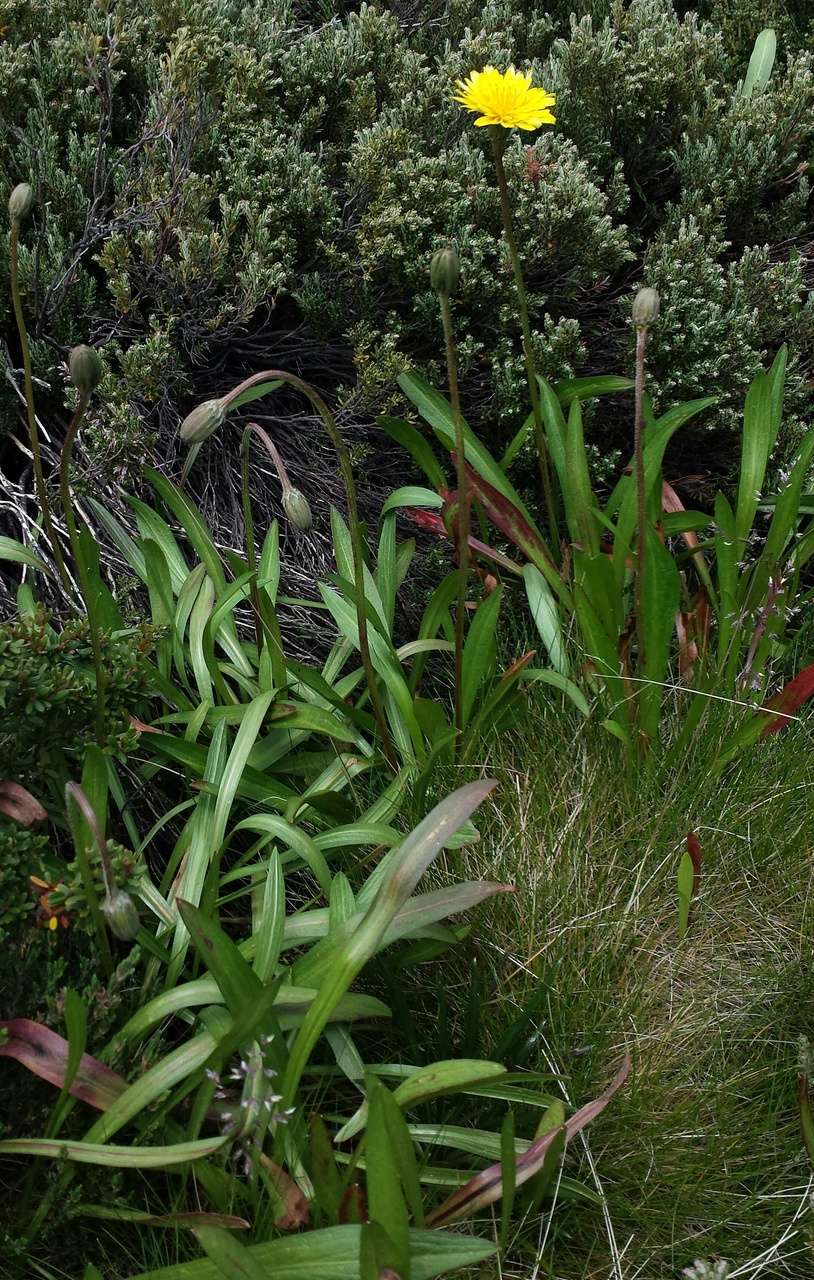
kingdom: Plantae
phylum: Tracheophyta
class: Magnoliopsida
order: Asterales
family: Asteraceae
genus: Microseris
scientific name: Microseris lanceolata
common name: Yam daisy
